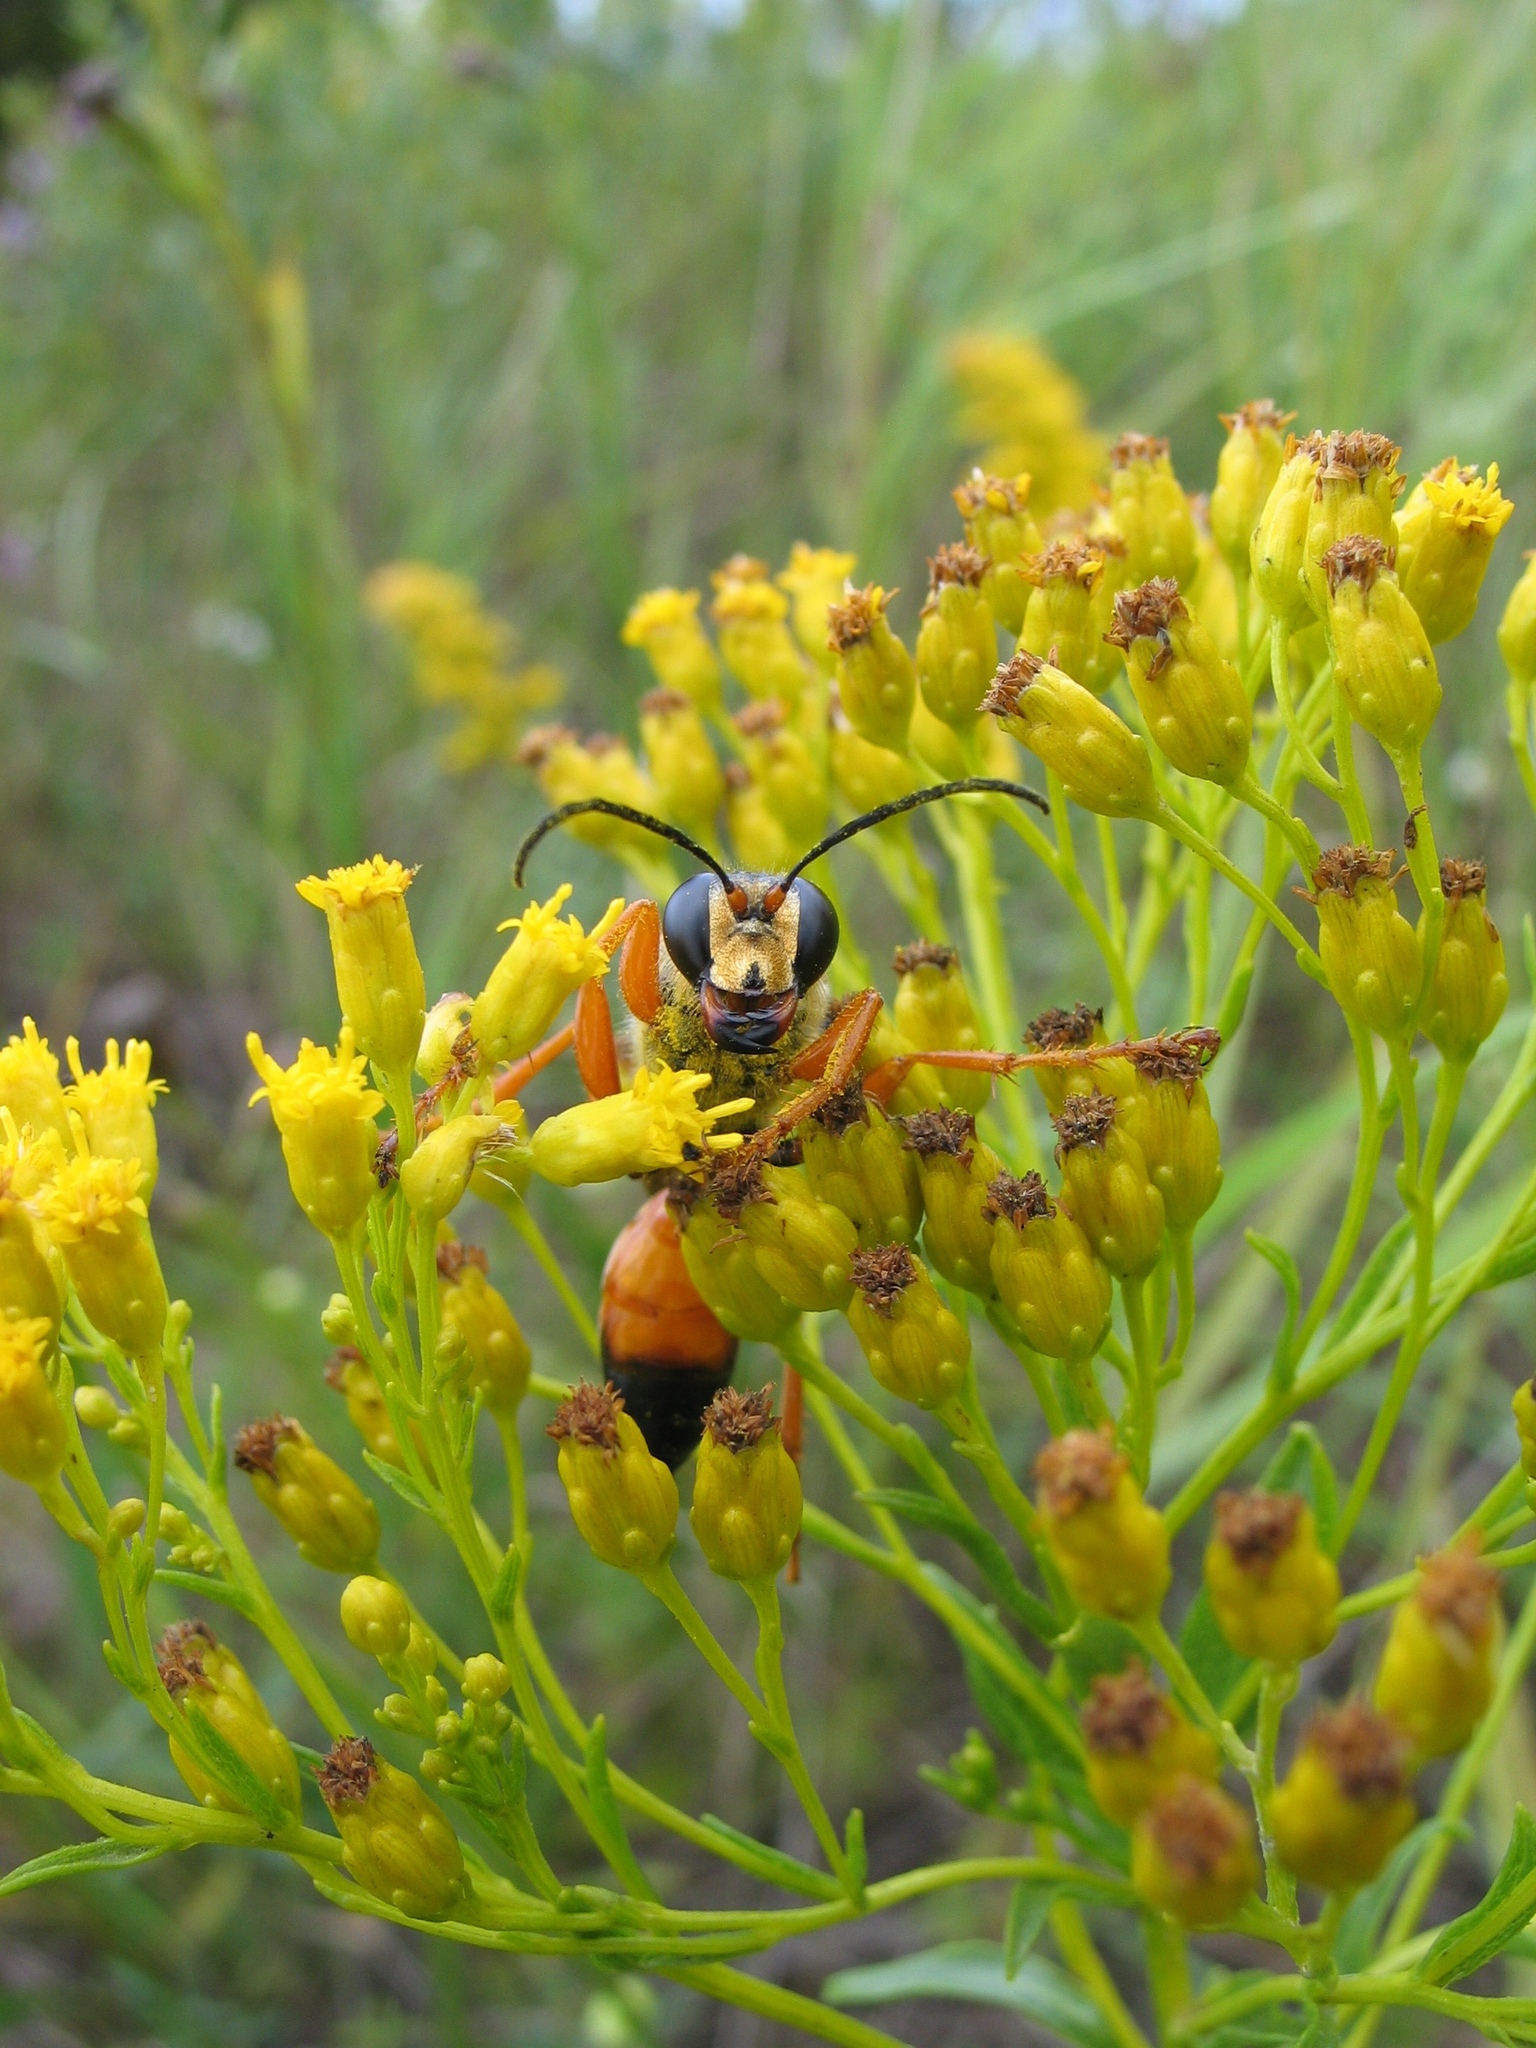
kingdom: Animalia
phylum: Arthropoda
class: Insecta
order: Hymenoptera
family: Sphecidae
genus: Sphex
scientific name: Sphex ichneumoneus
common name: Great golden digger wasp
